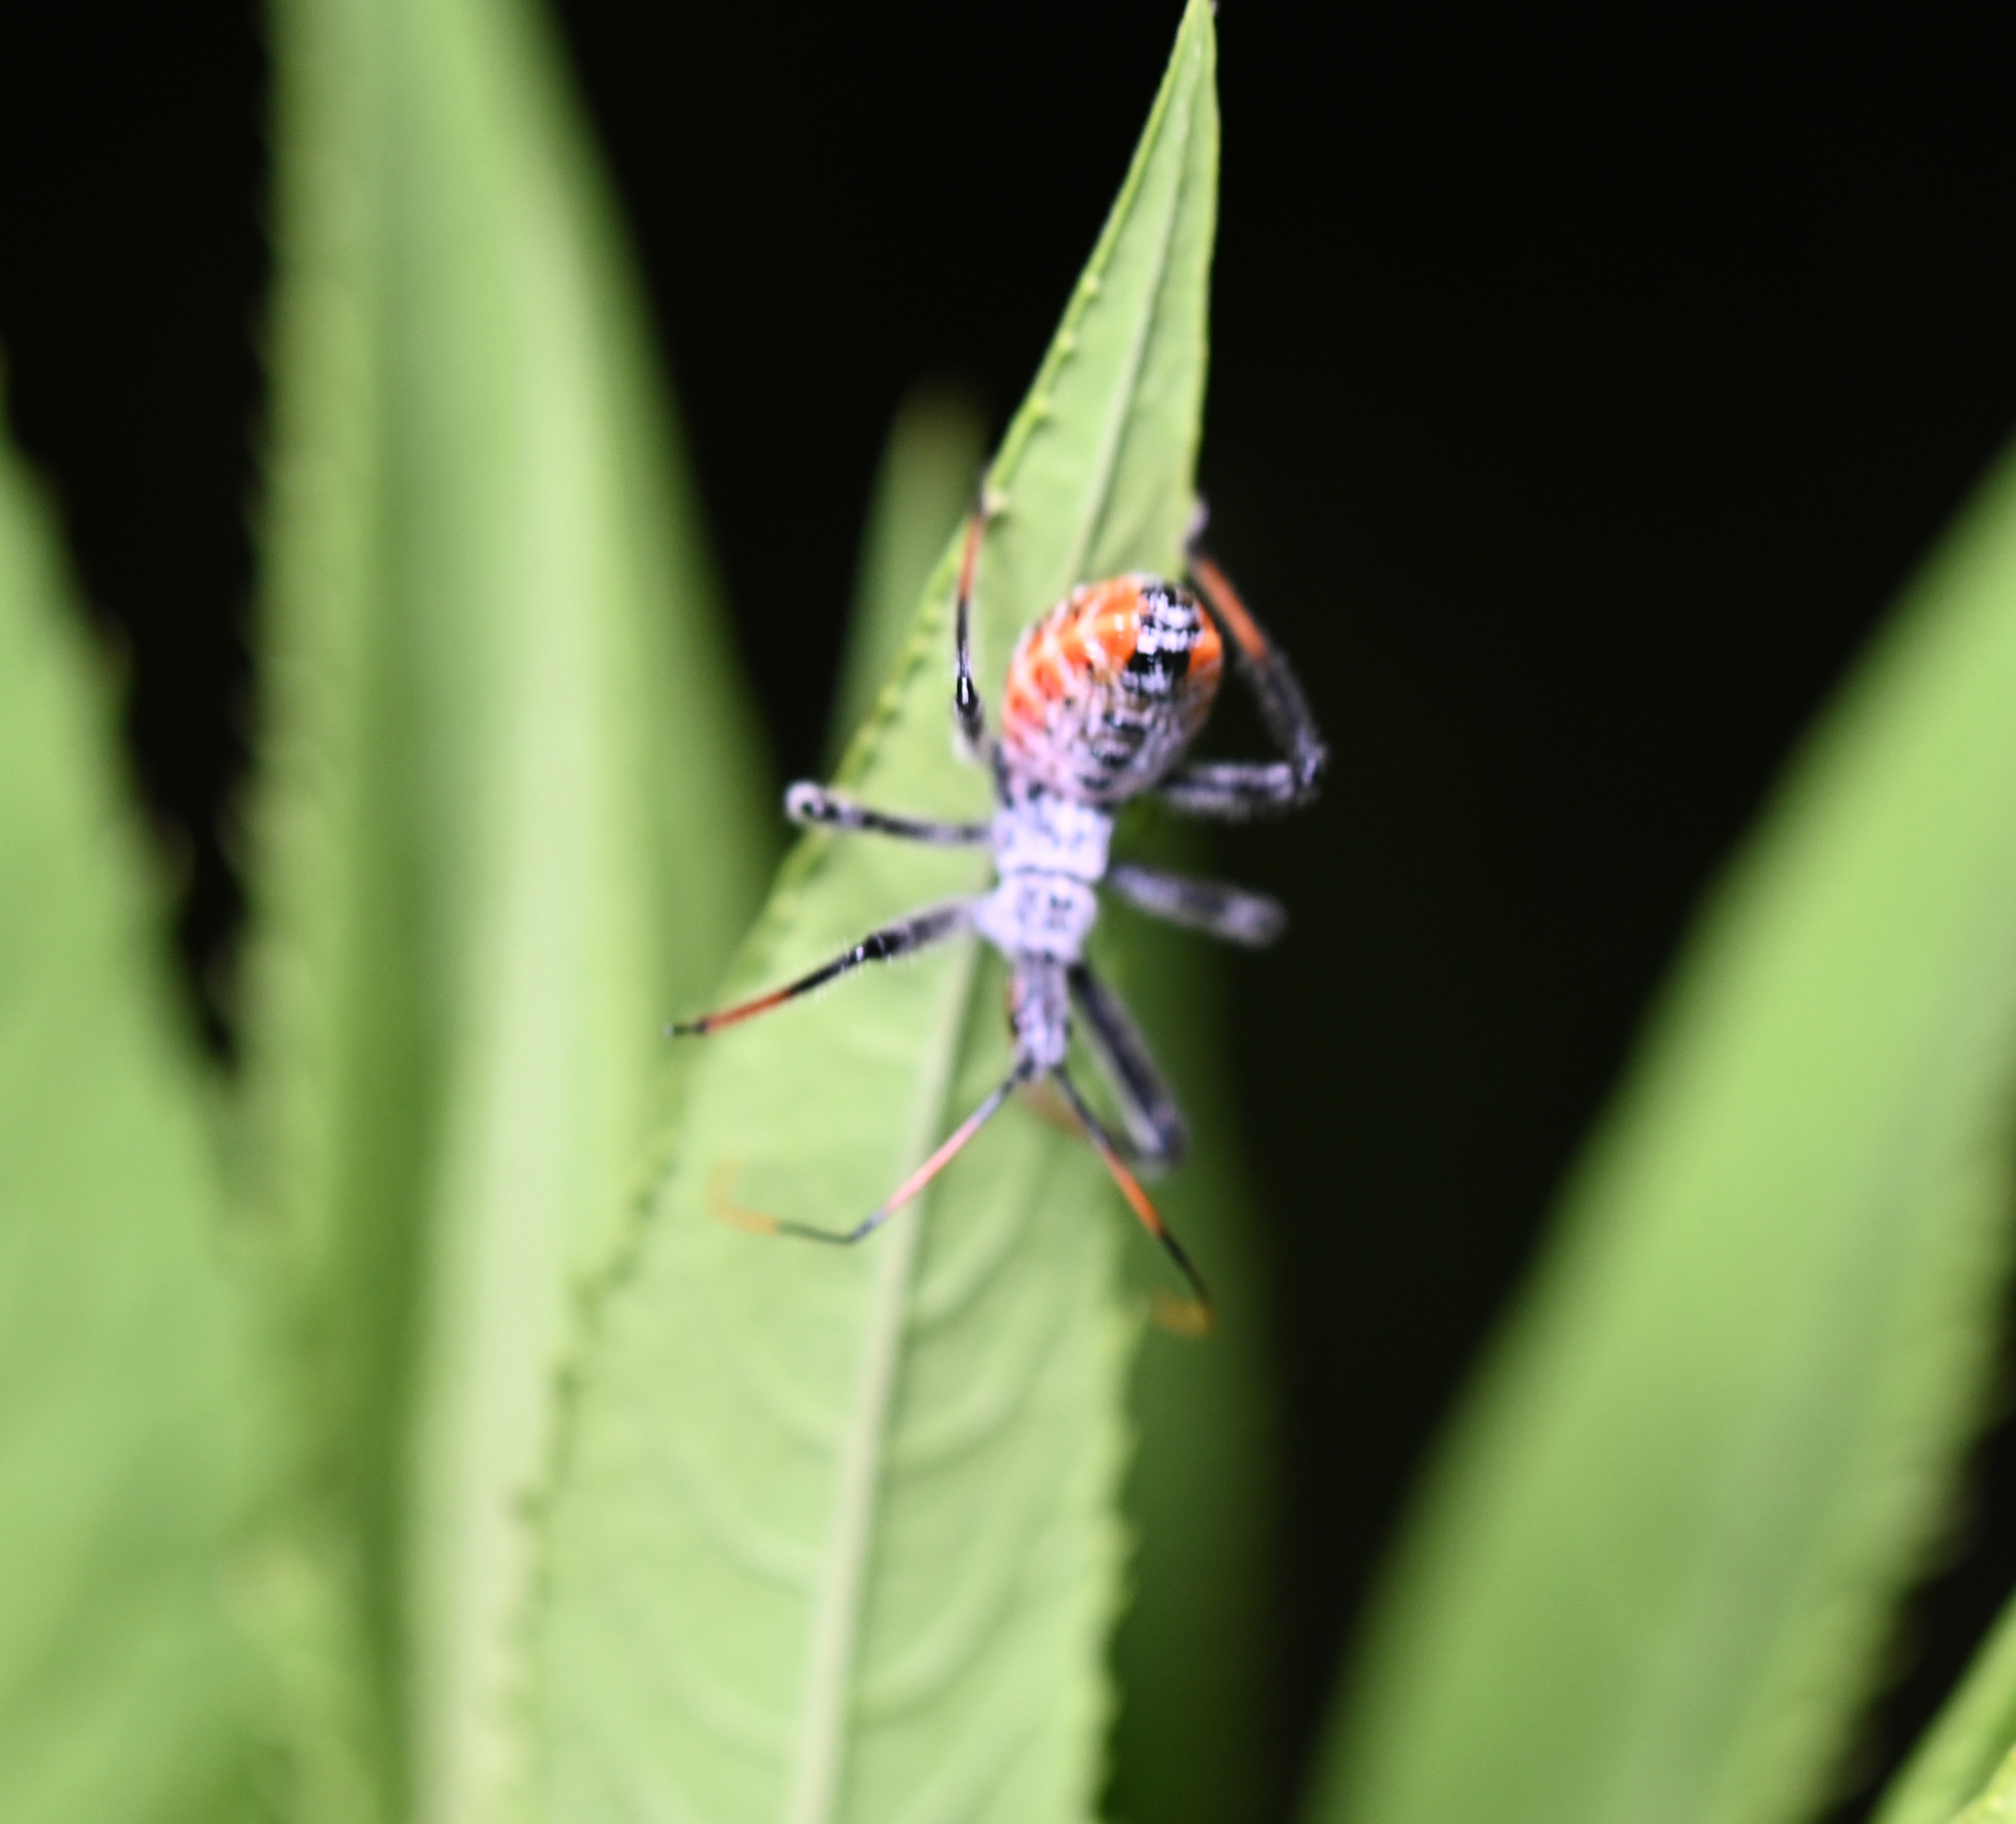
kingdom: Animalia
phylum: Arthropoda
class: Insecta
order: Hemiptera
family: Reduviidae
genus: Arilus
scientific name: Arilus cristatus
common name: North american wheel bug
